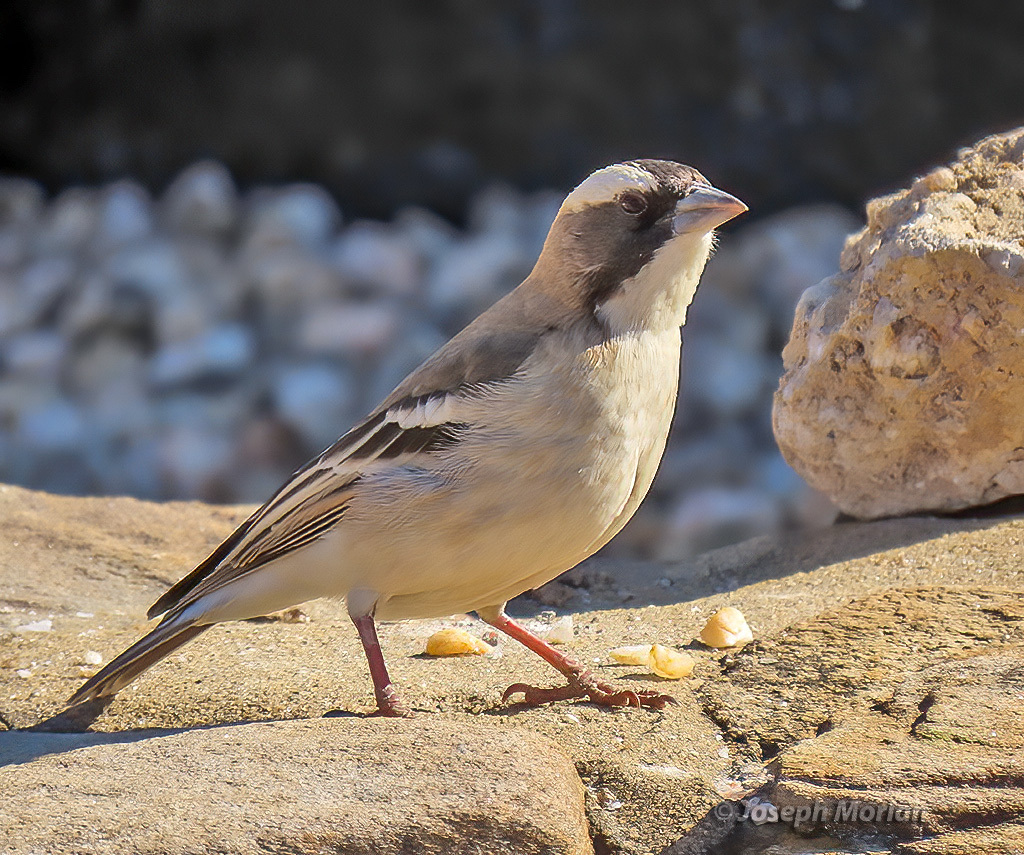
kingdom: Animalia
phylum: Chordata
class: Aves
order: Passeriformes
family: Passeridae
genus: Plocepasser
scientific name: Plocepasser mahali
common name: White-browed sparrow-weaver
